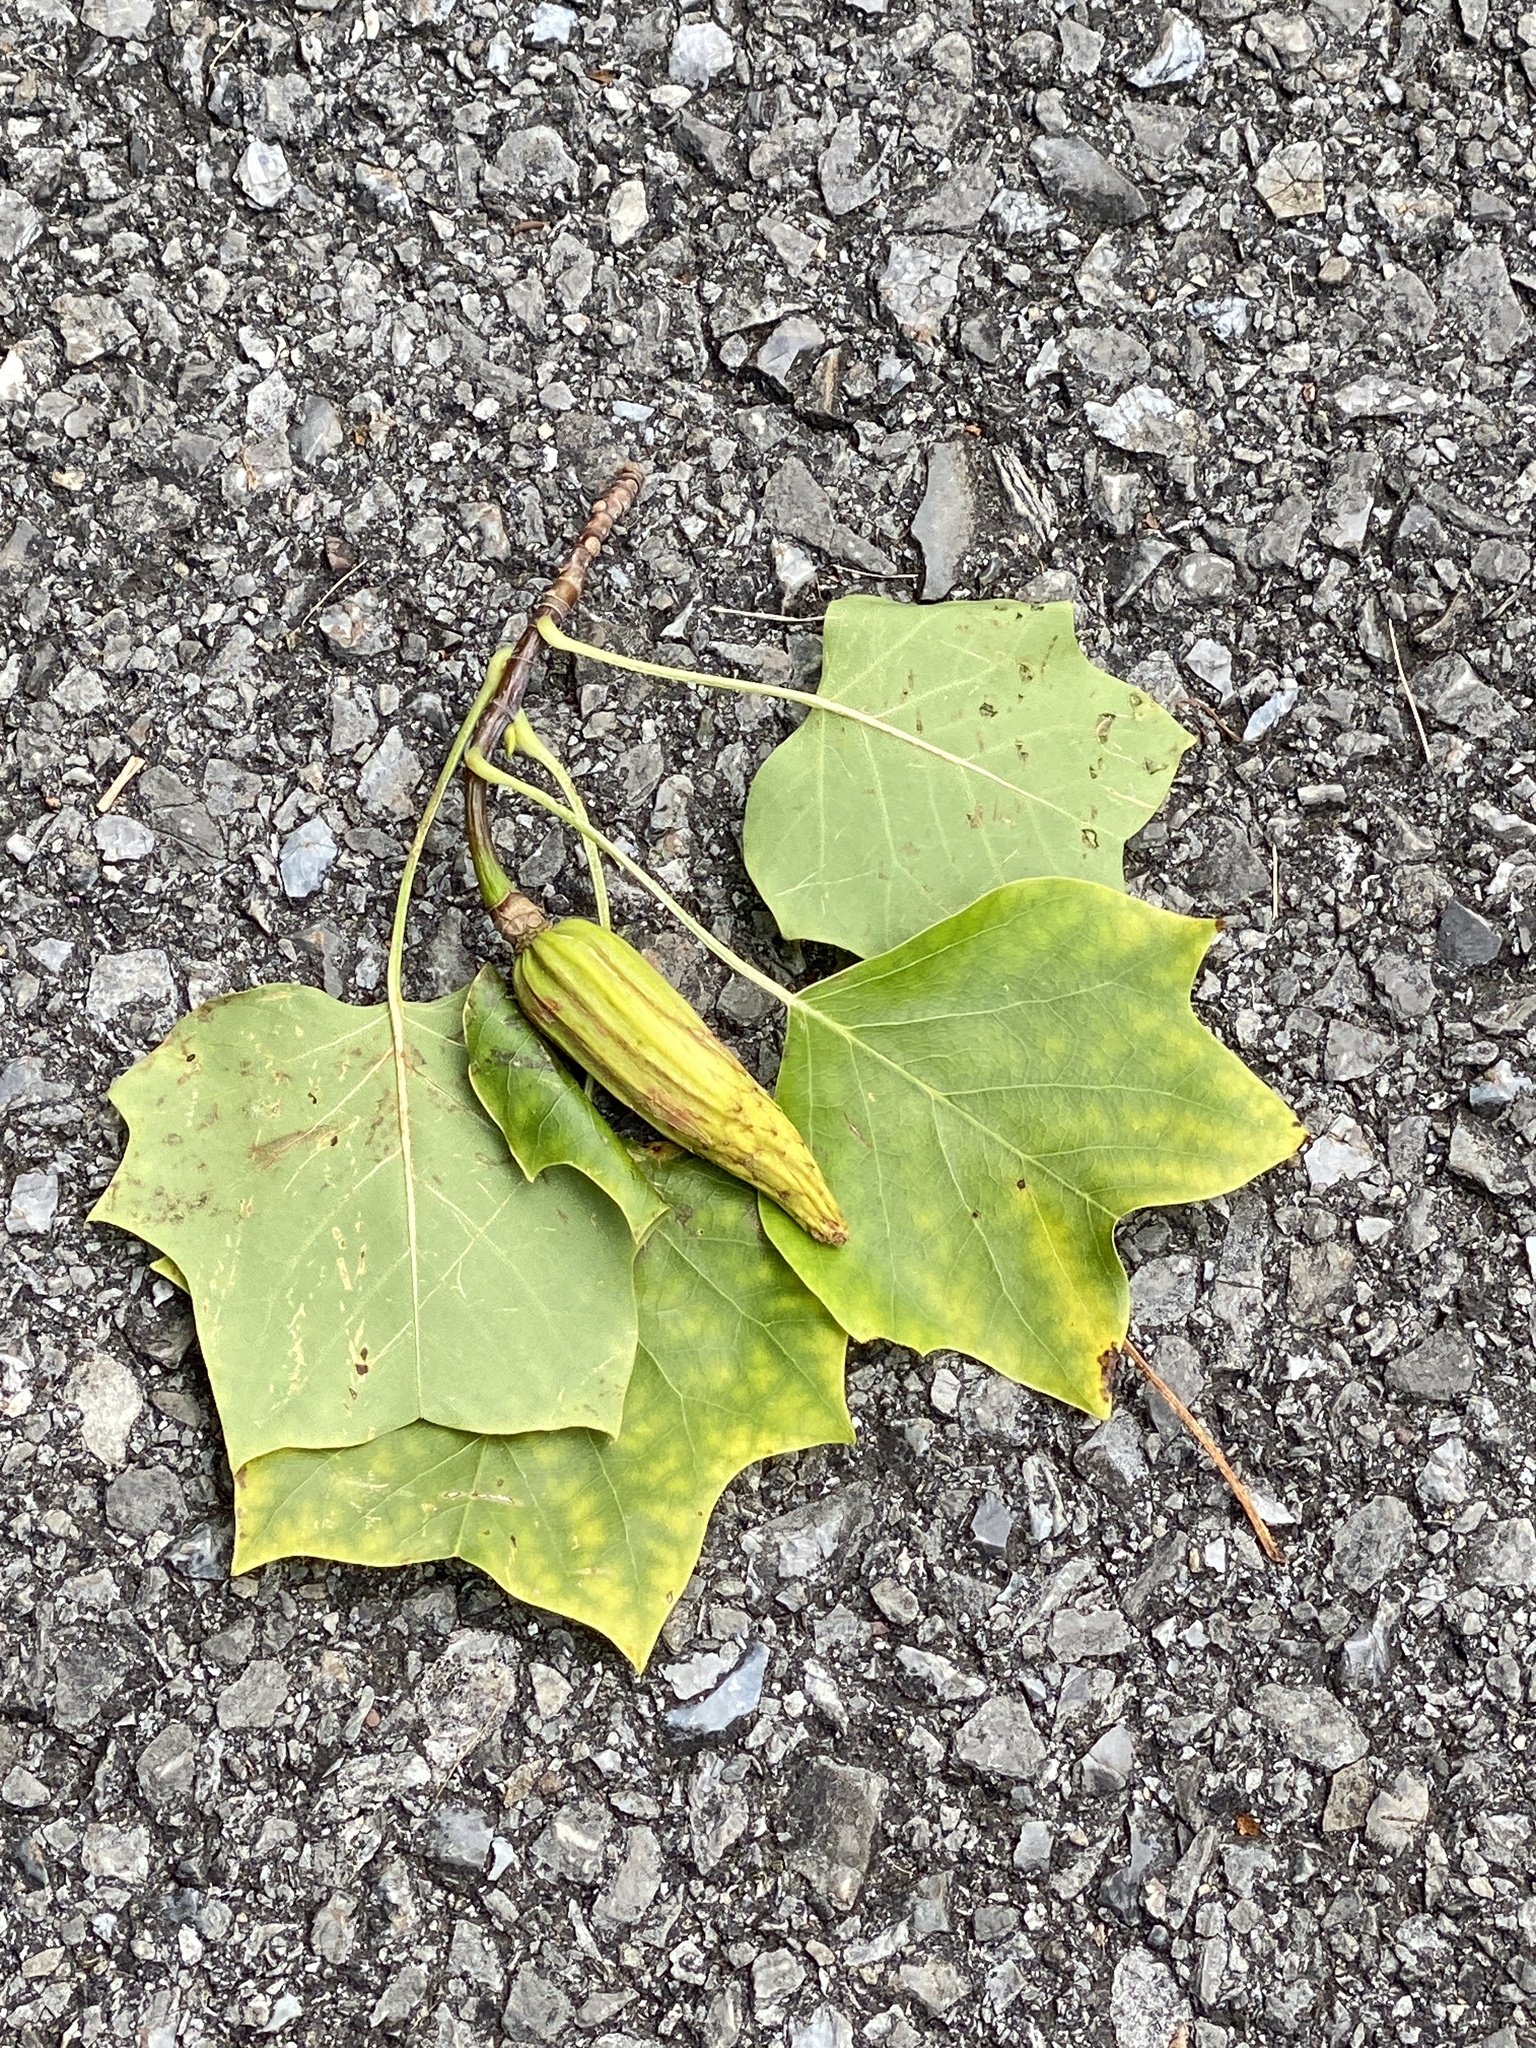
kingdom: Plantae
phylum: Tracheophyta
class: Magnoliopsida
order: Magnoliales
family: Magnoliaceae
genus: Liriodendron
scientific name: Liriodendron tulipifera
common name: Tulip tree
